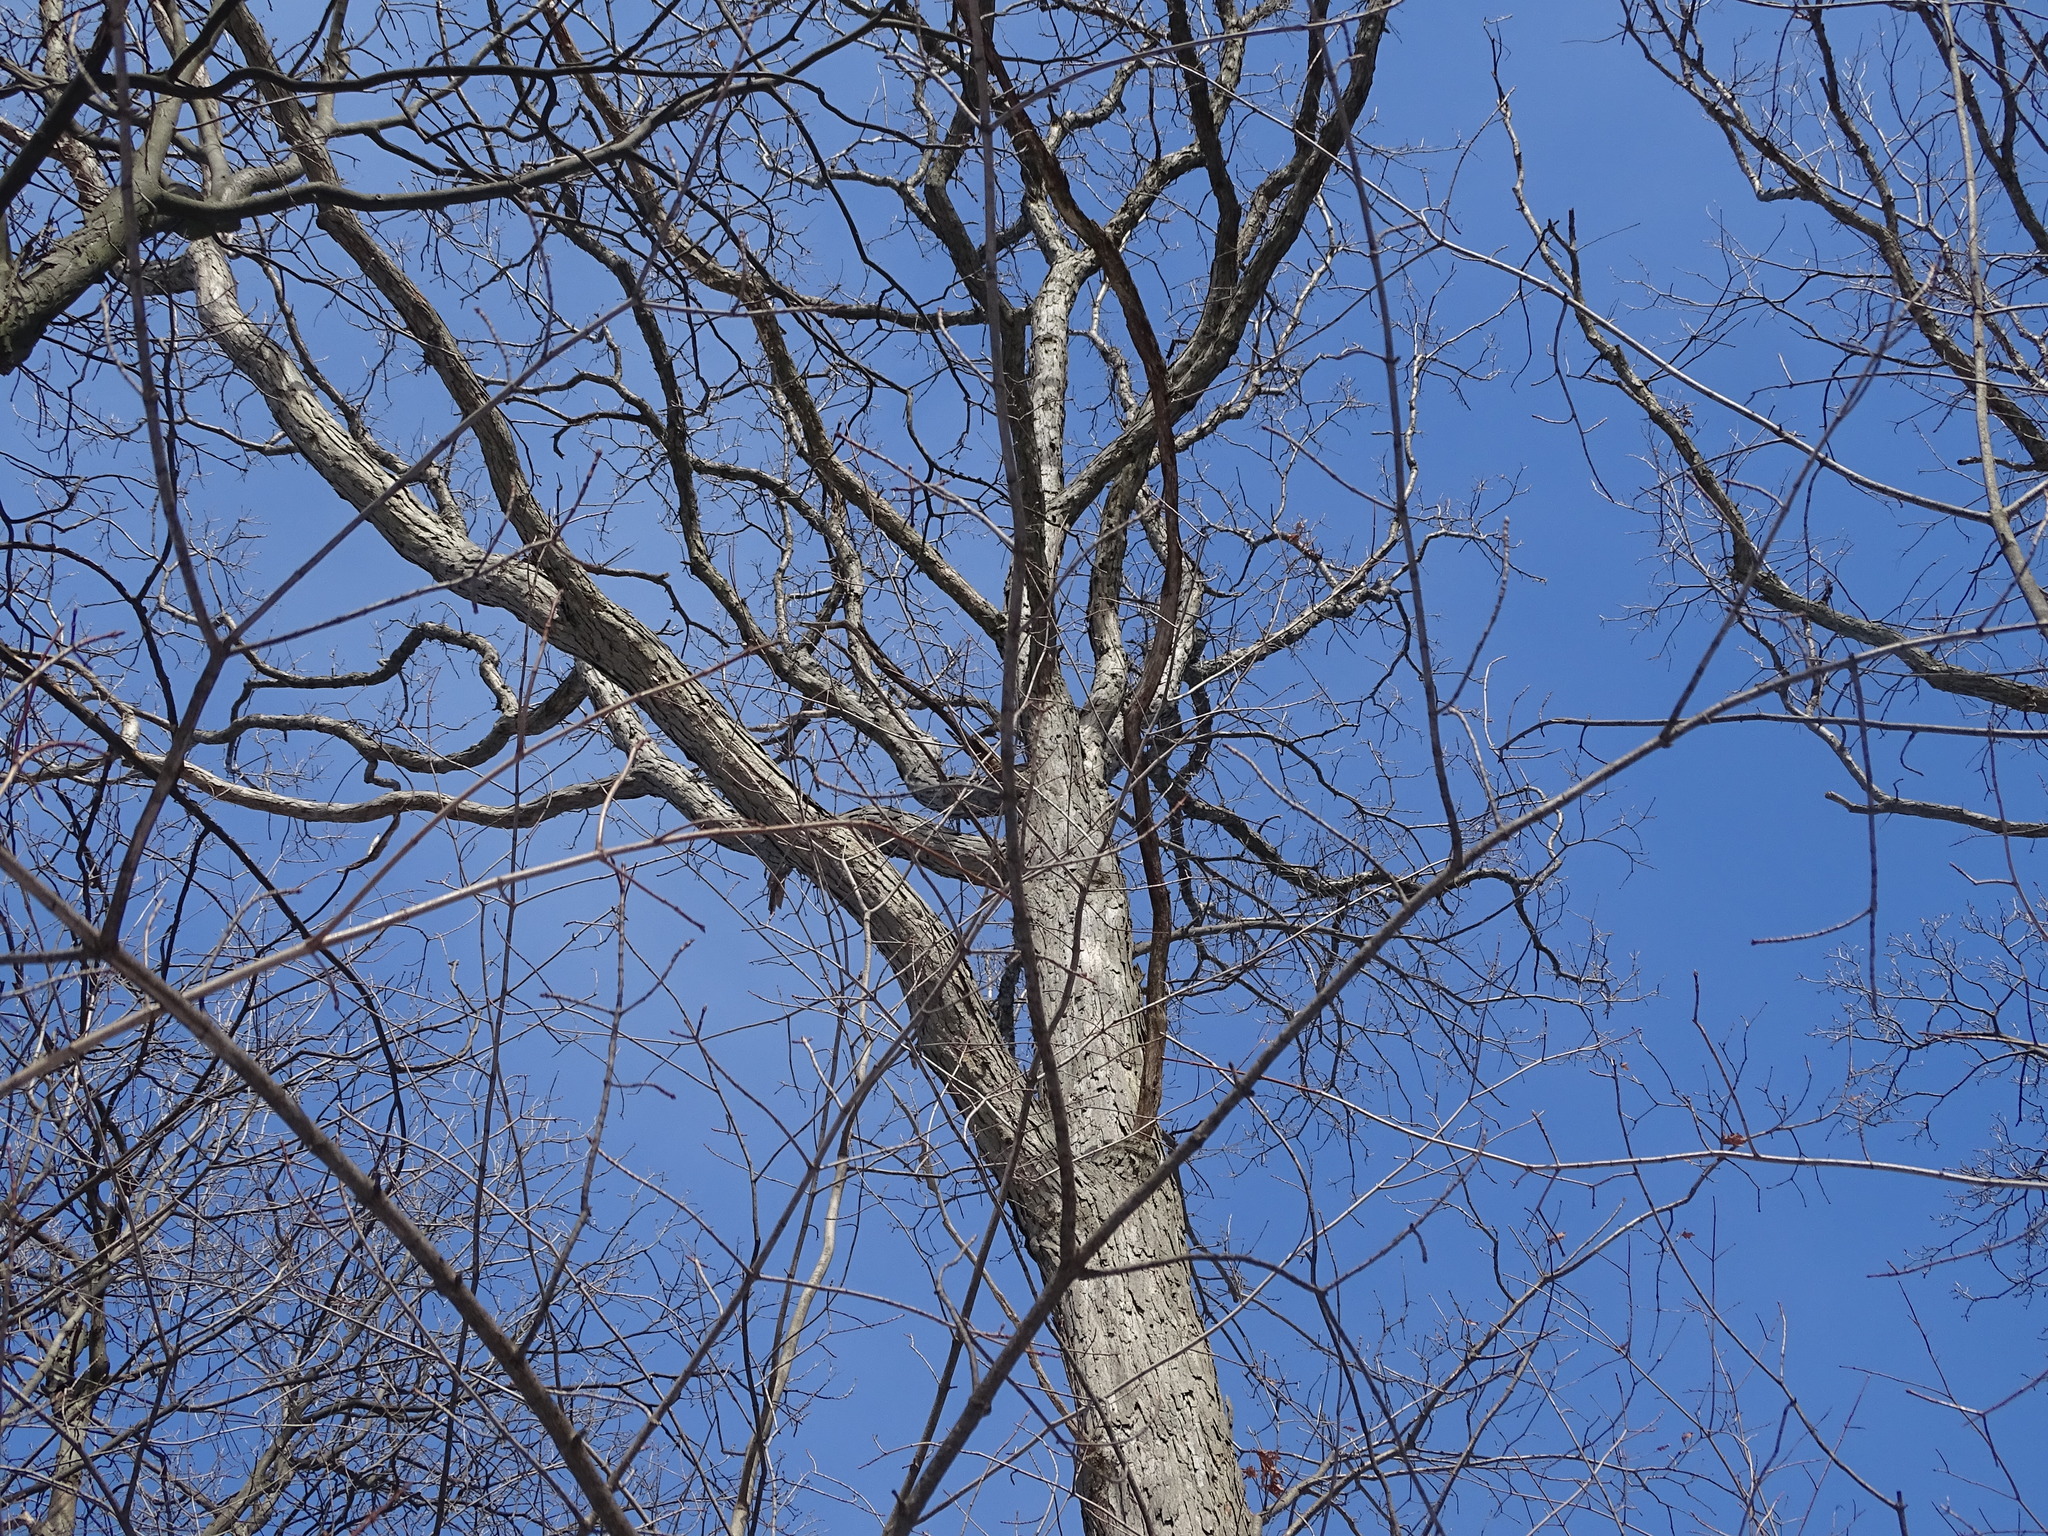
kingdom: Plantae
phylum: Tracheophyta
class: Magnoliopsida
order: Fagales
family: Fagaceae
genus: Quercus
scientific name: Quercus alba
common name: White oak
